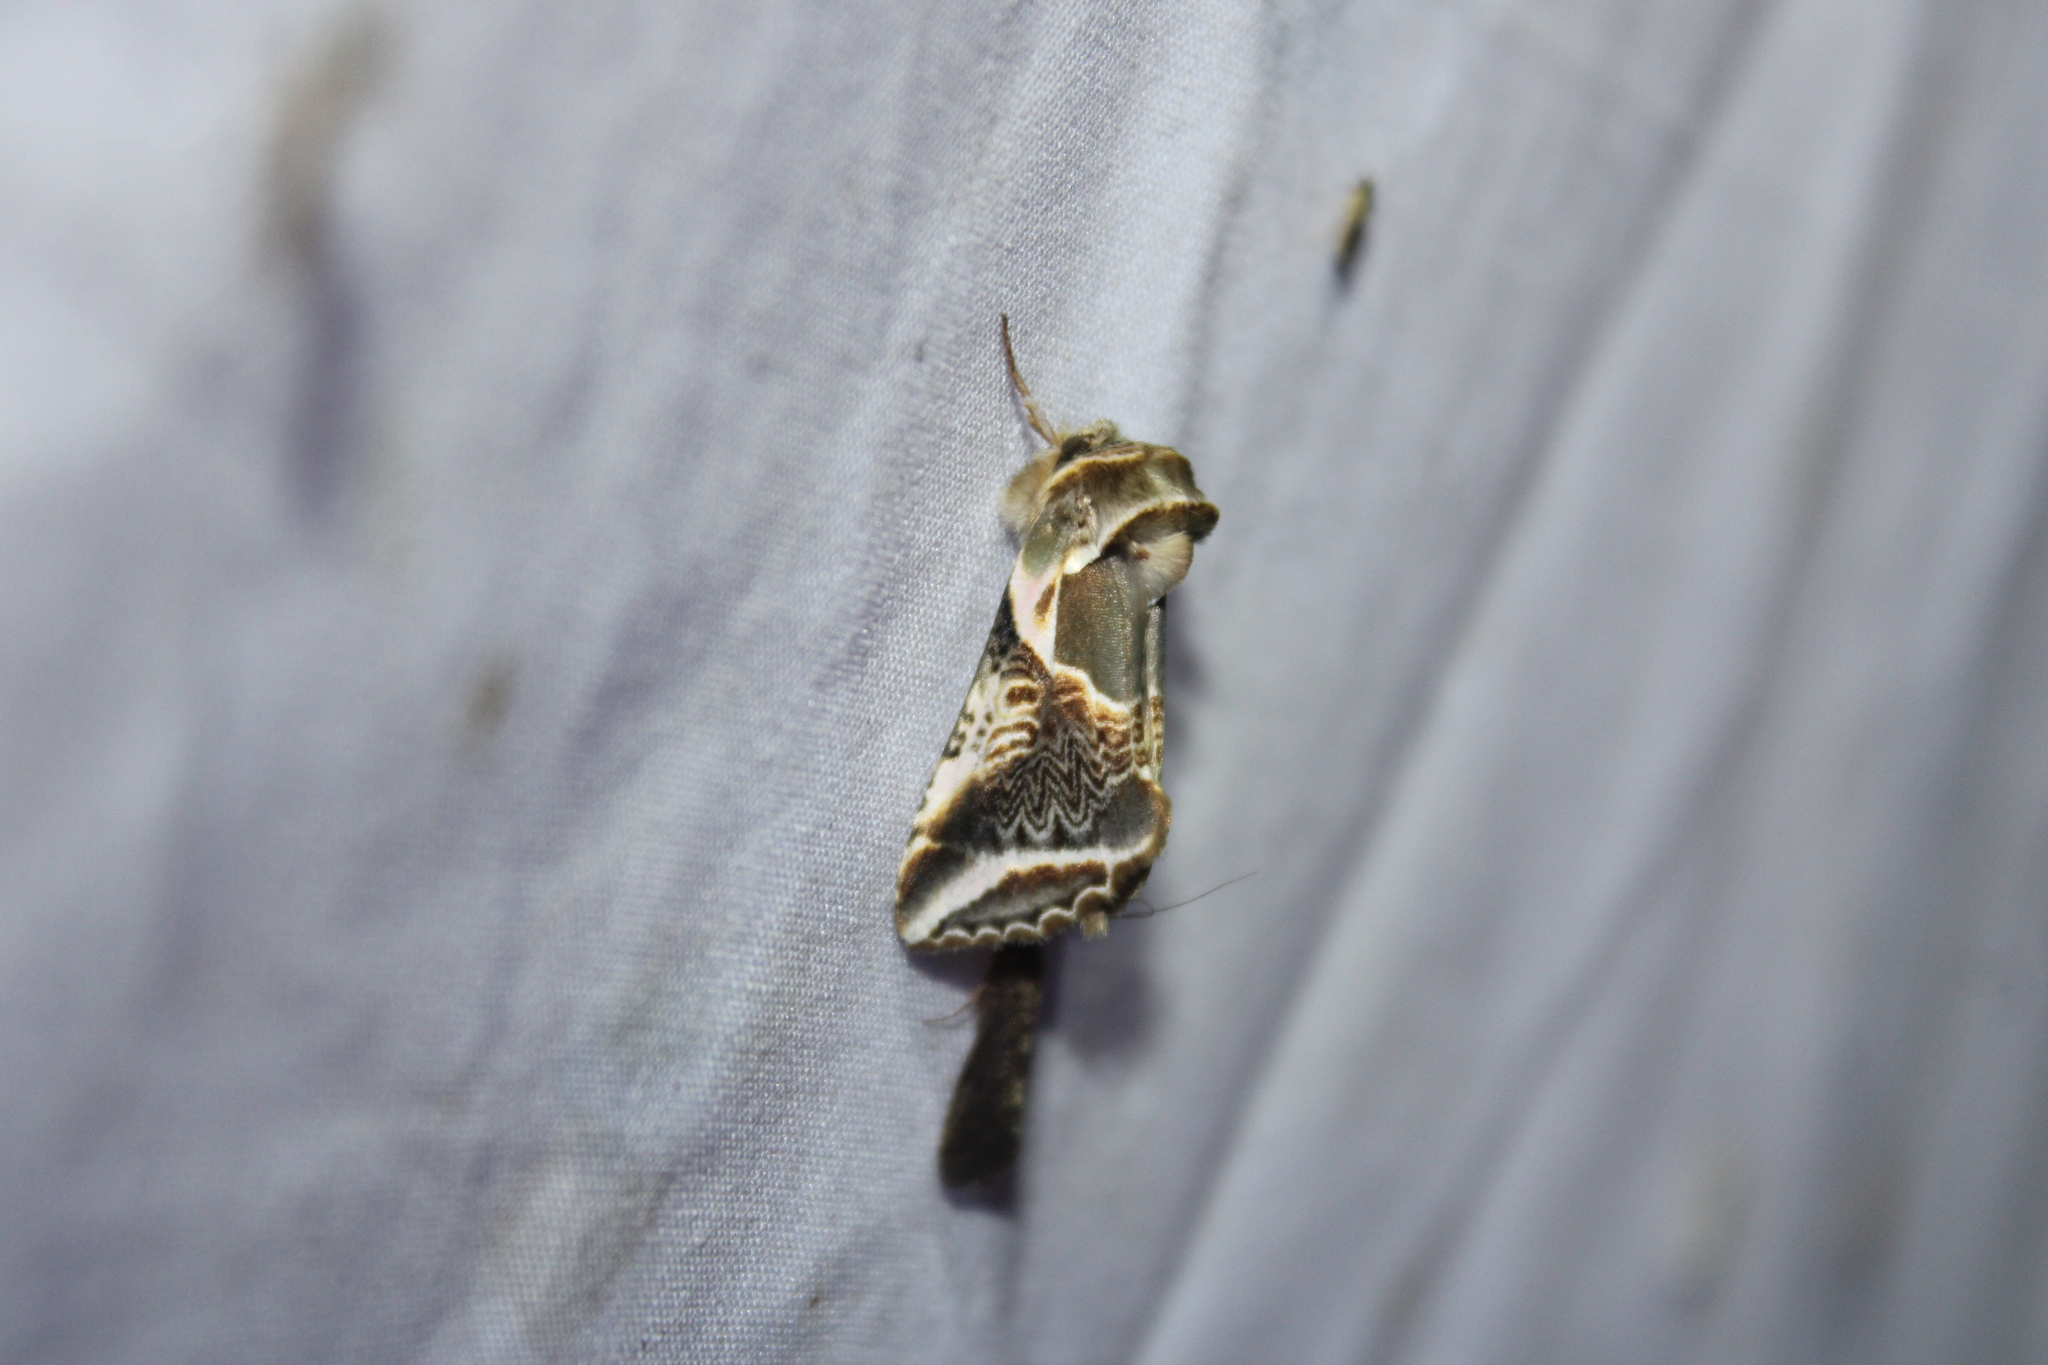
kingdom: Animalia
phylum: Arthropoda
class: Insecta
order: Lepidoptera
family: Drepanidae
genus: Habrosyne
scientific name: Habrosyne scripta
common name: Lettered habrosyne moth
